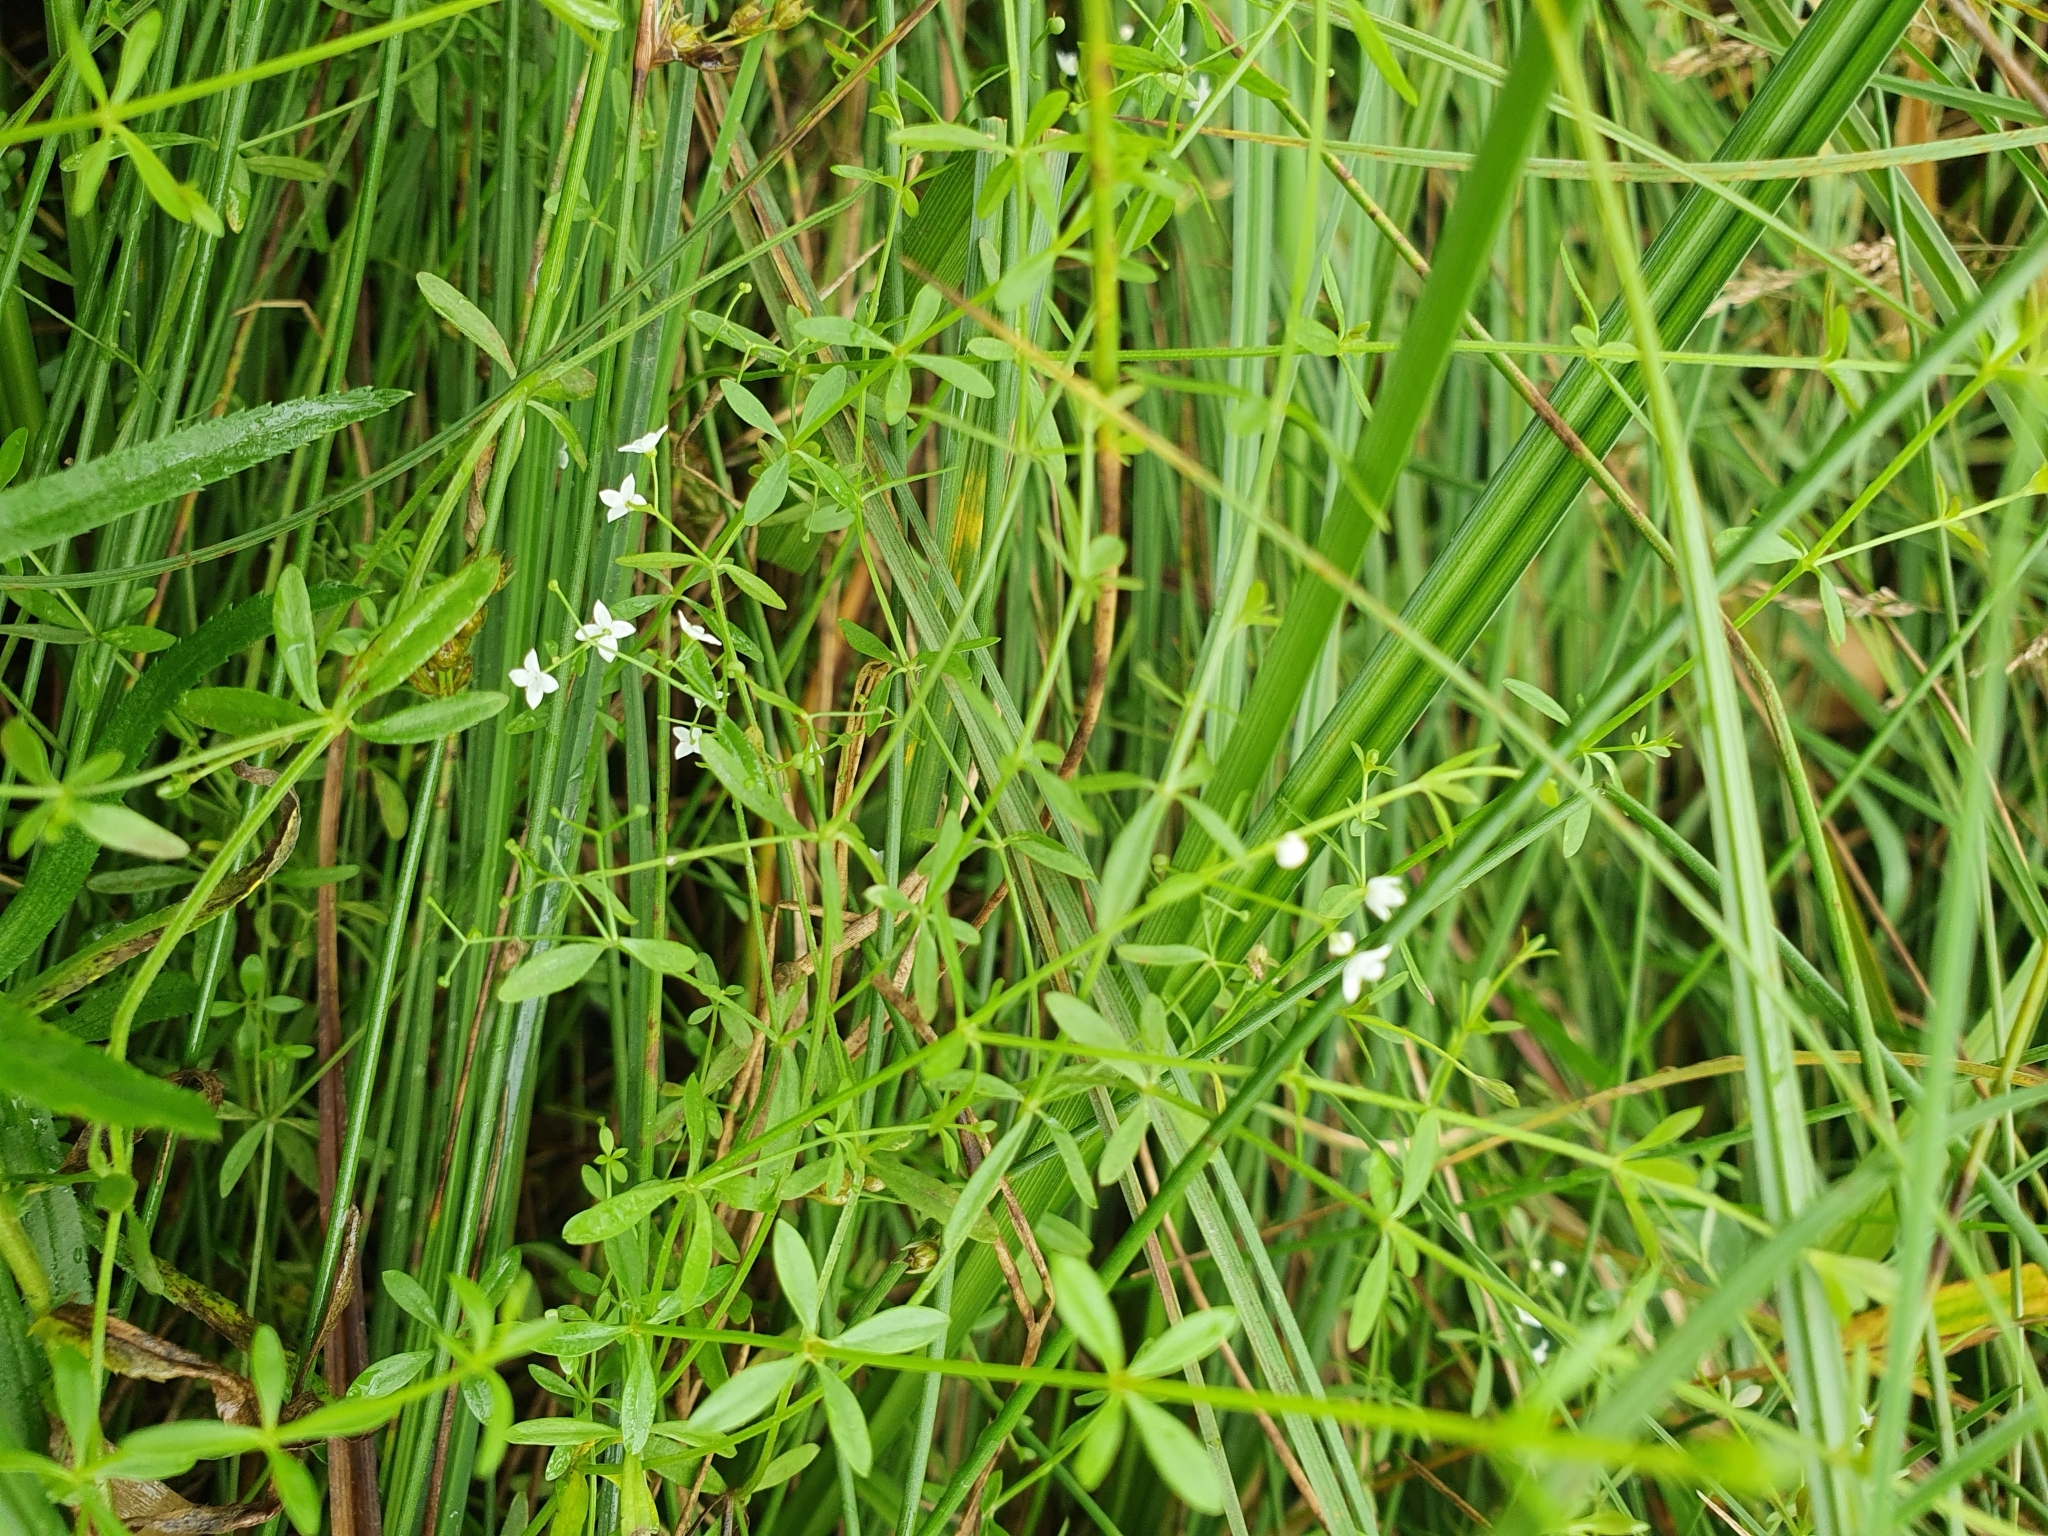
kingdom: Plantae
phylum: Tracheophyta
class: Magnoliopsida
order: Gentianales
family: Rubiaceae
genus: Galium
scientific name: Galium palustre
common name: Common marsh-bedstraw
